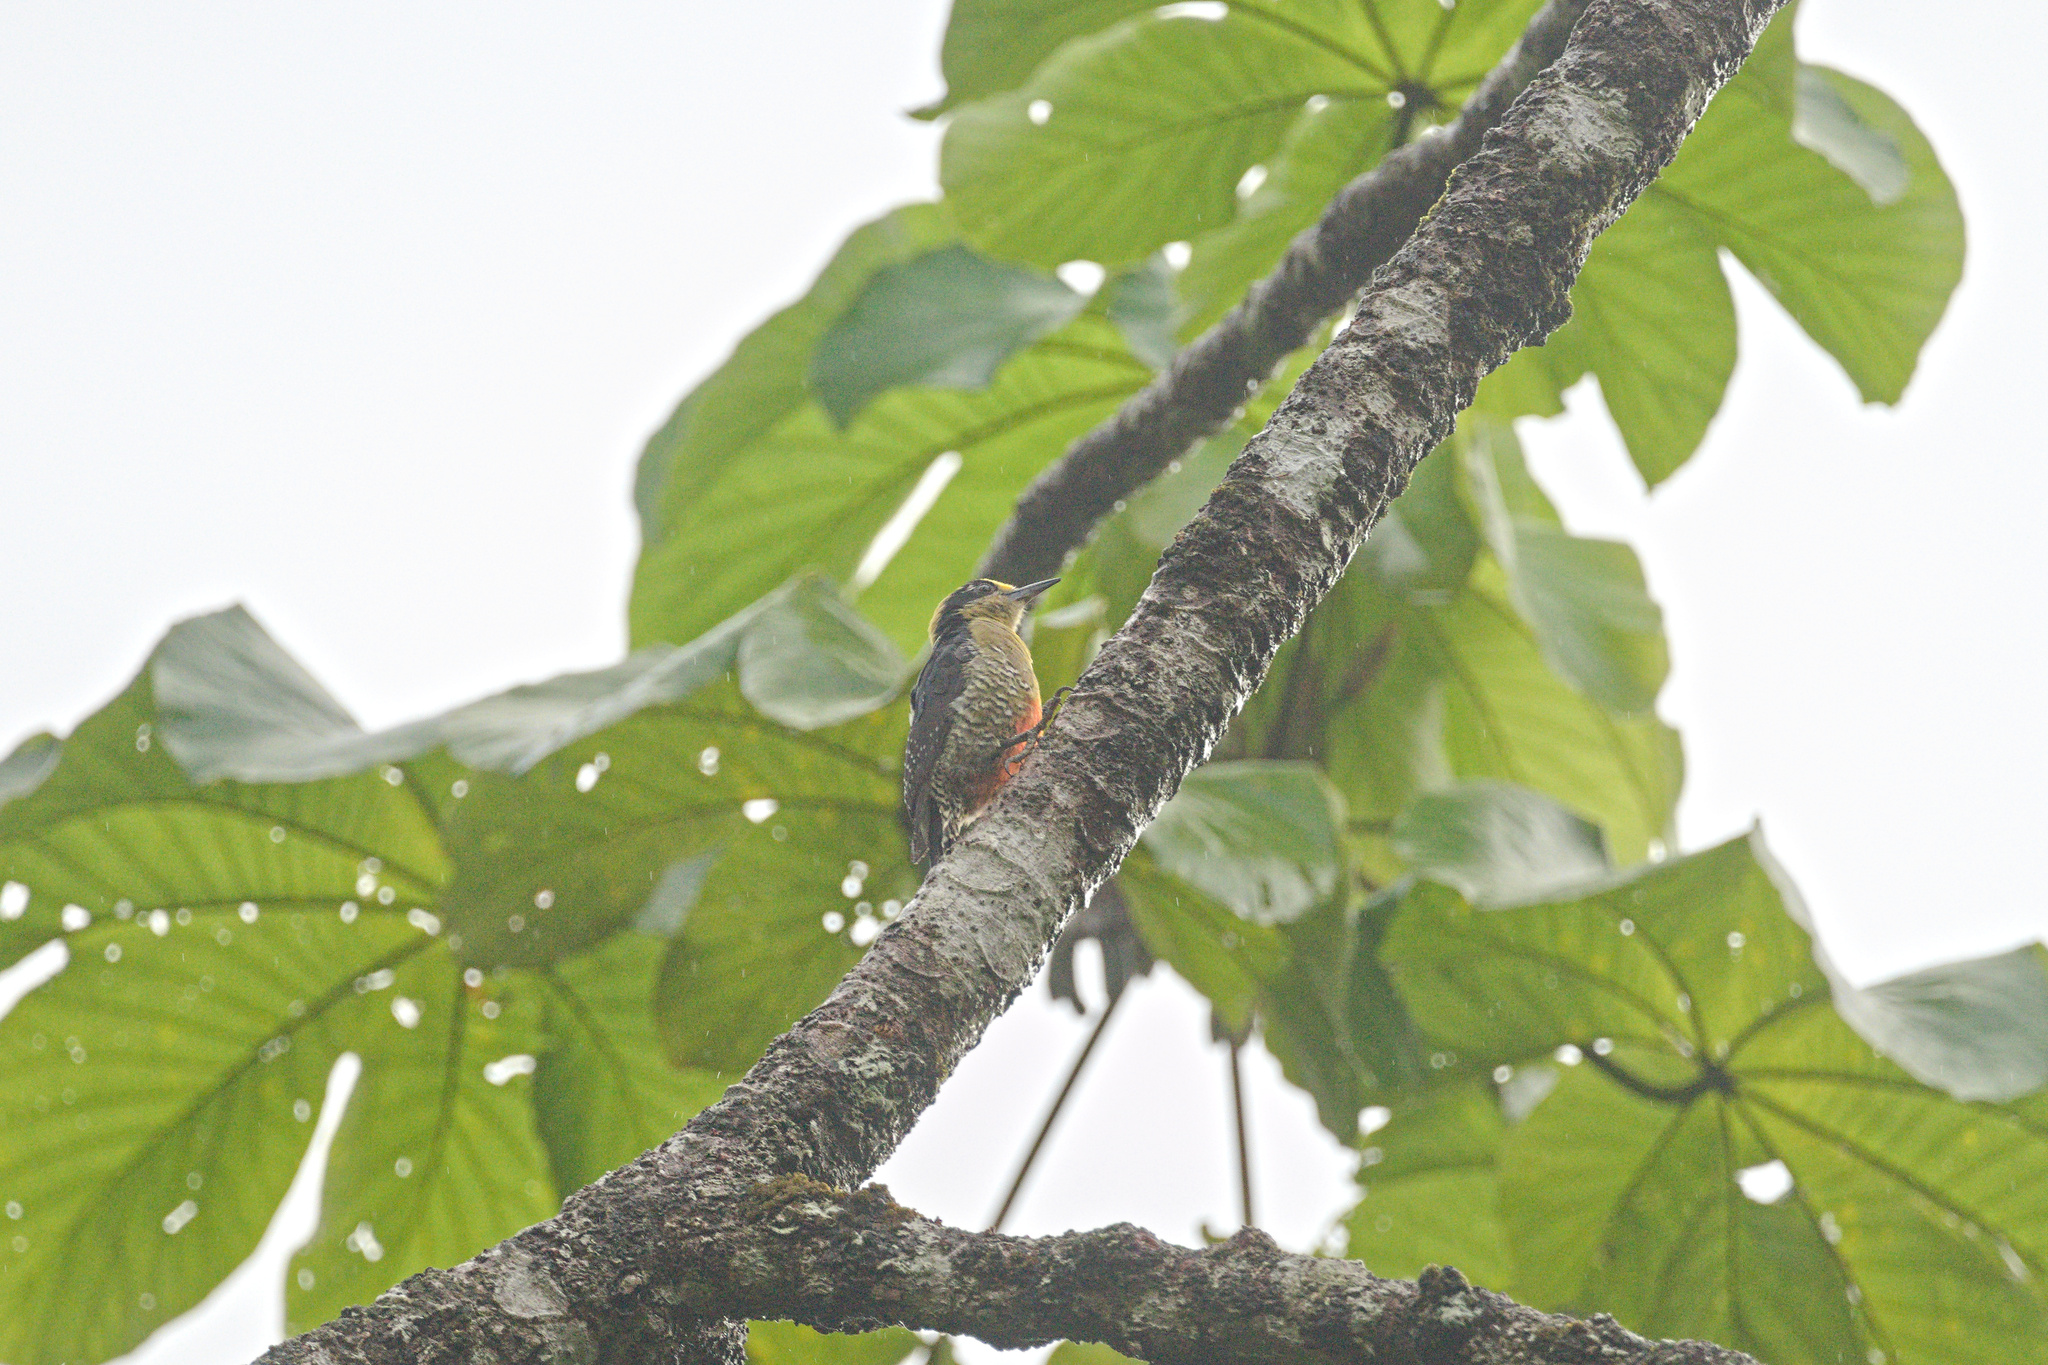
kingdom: Animalia
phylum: Chordata
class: Aves
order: Piciformes
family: Picidae
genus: Melanerpes
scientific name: Melanerpes chrysauchen
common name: Golden-naped woodpecker
